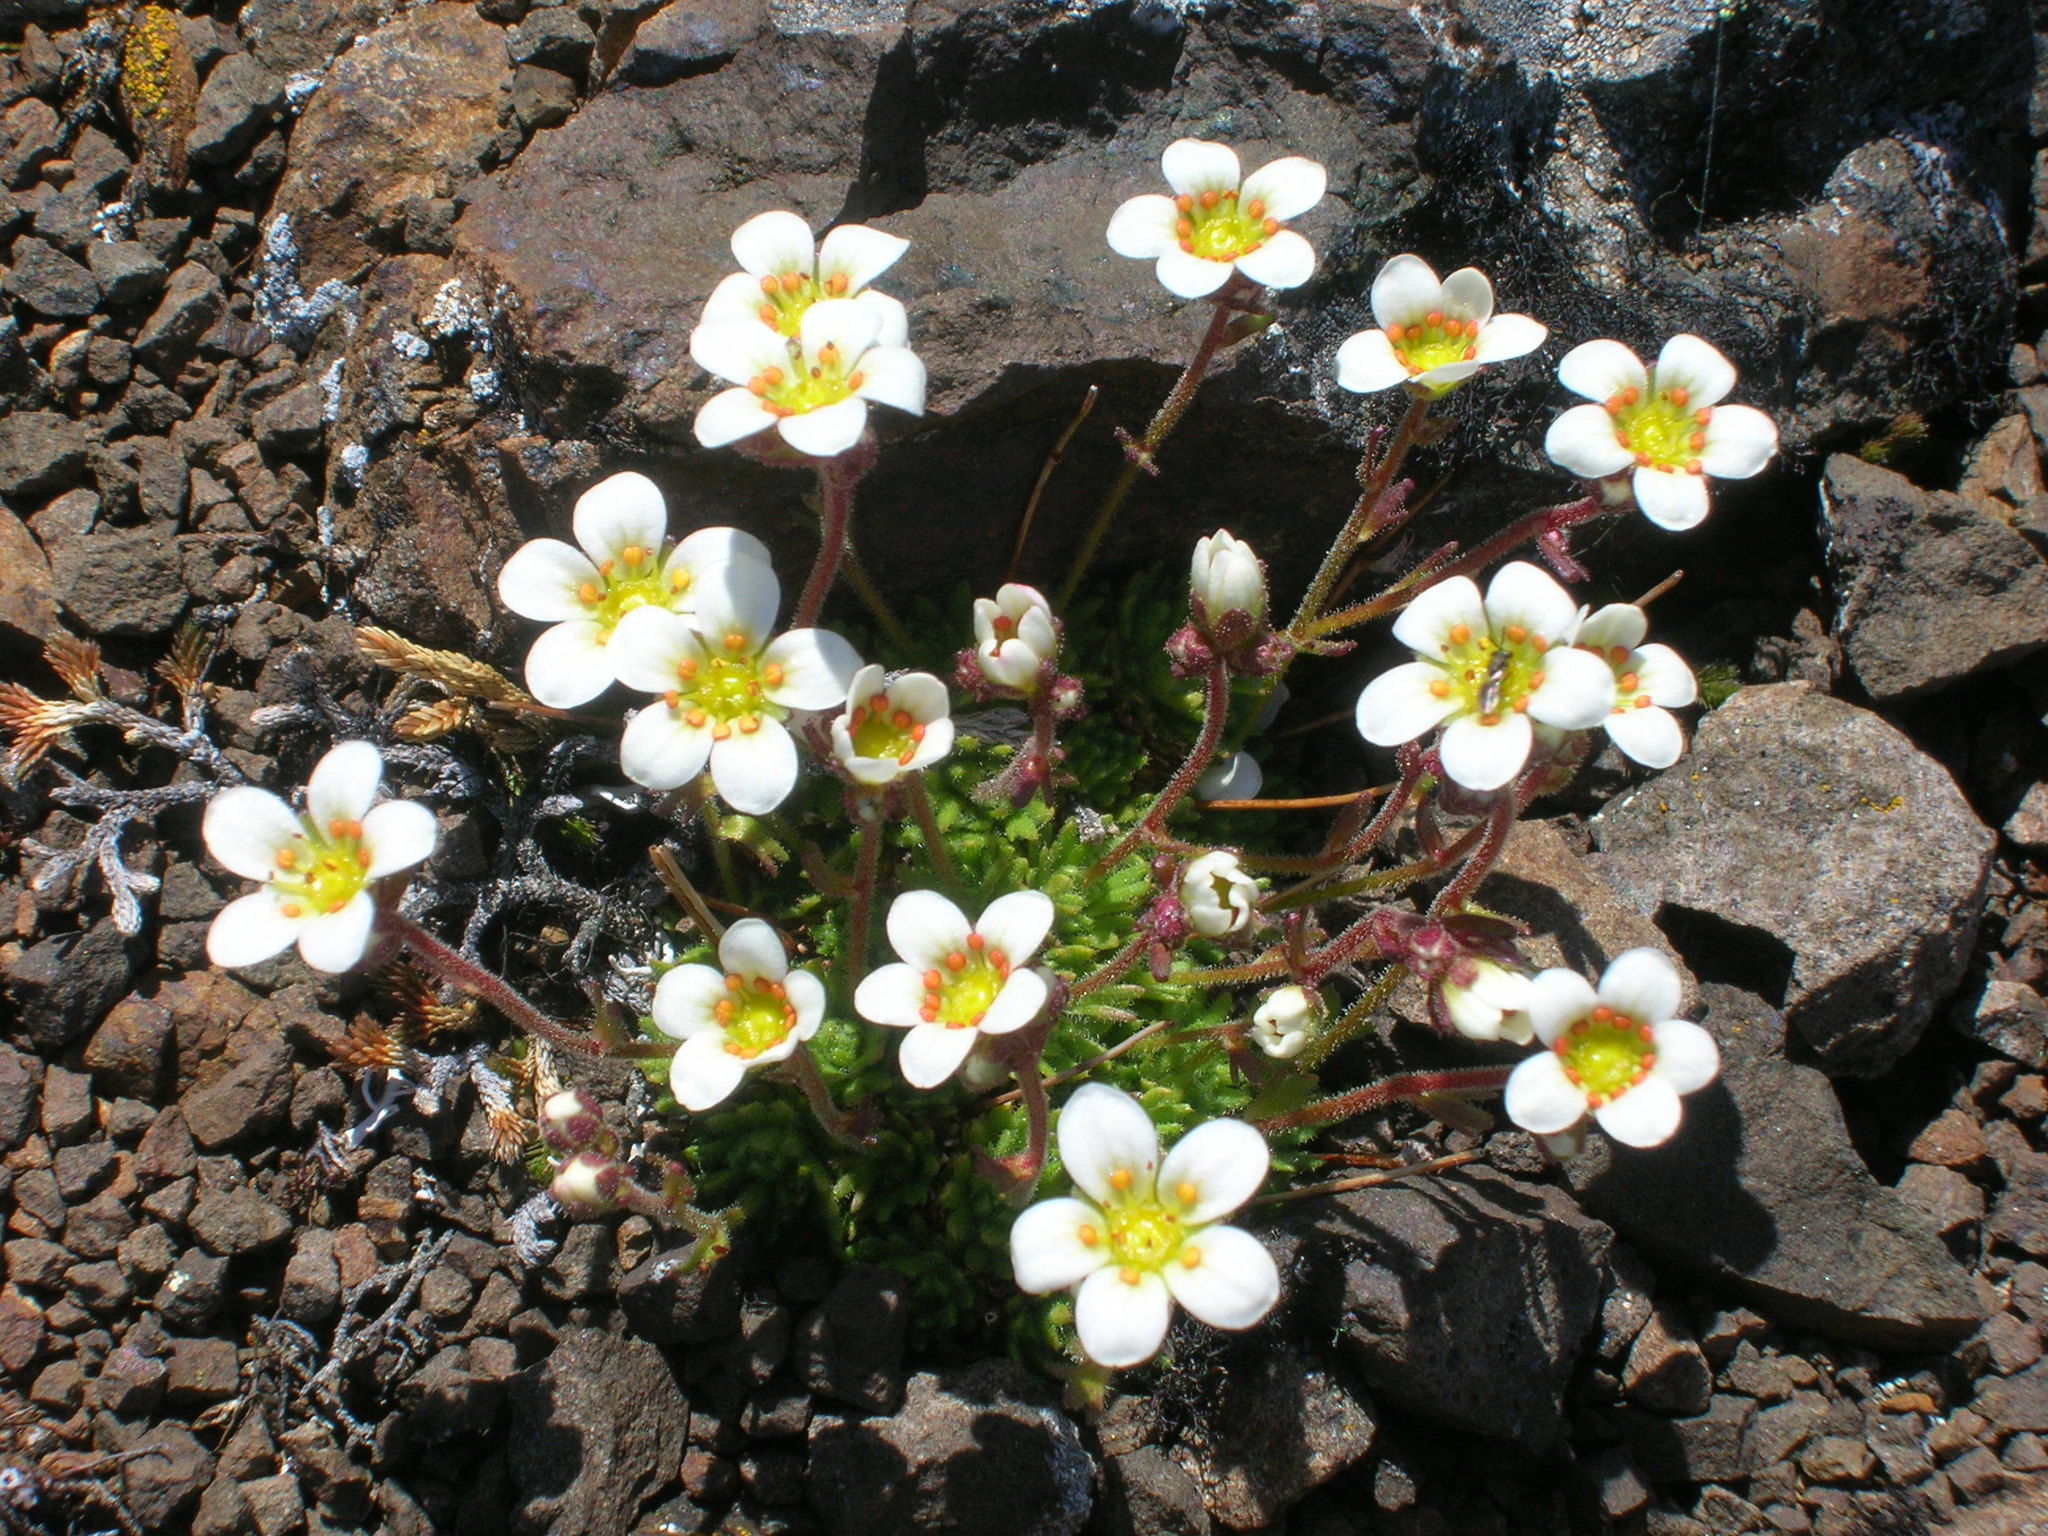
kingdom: Plantae
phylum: Tracheophyta
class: Magnoliopsida
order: Saxifragales
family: Saxifragaceae
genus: Saxifraga
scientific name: Saxifraga cespitosa
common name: Tufted saxifrage
